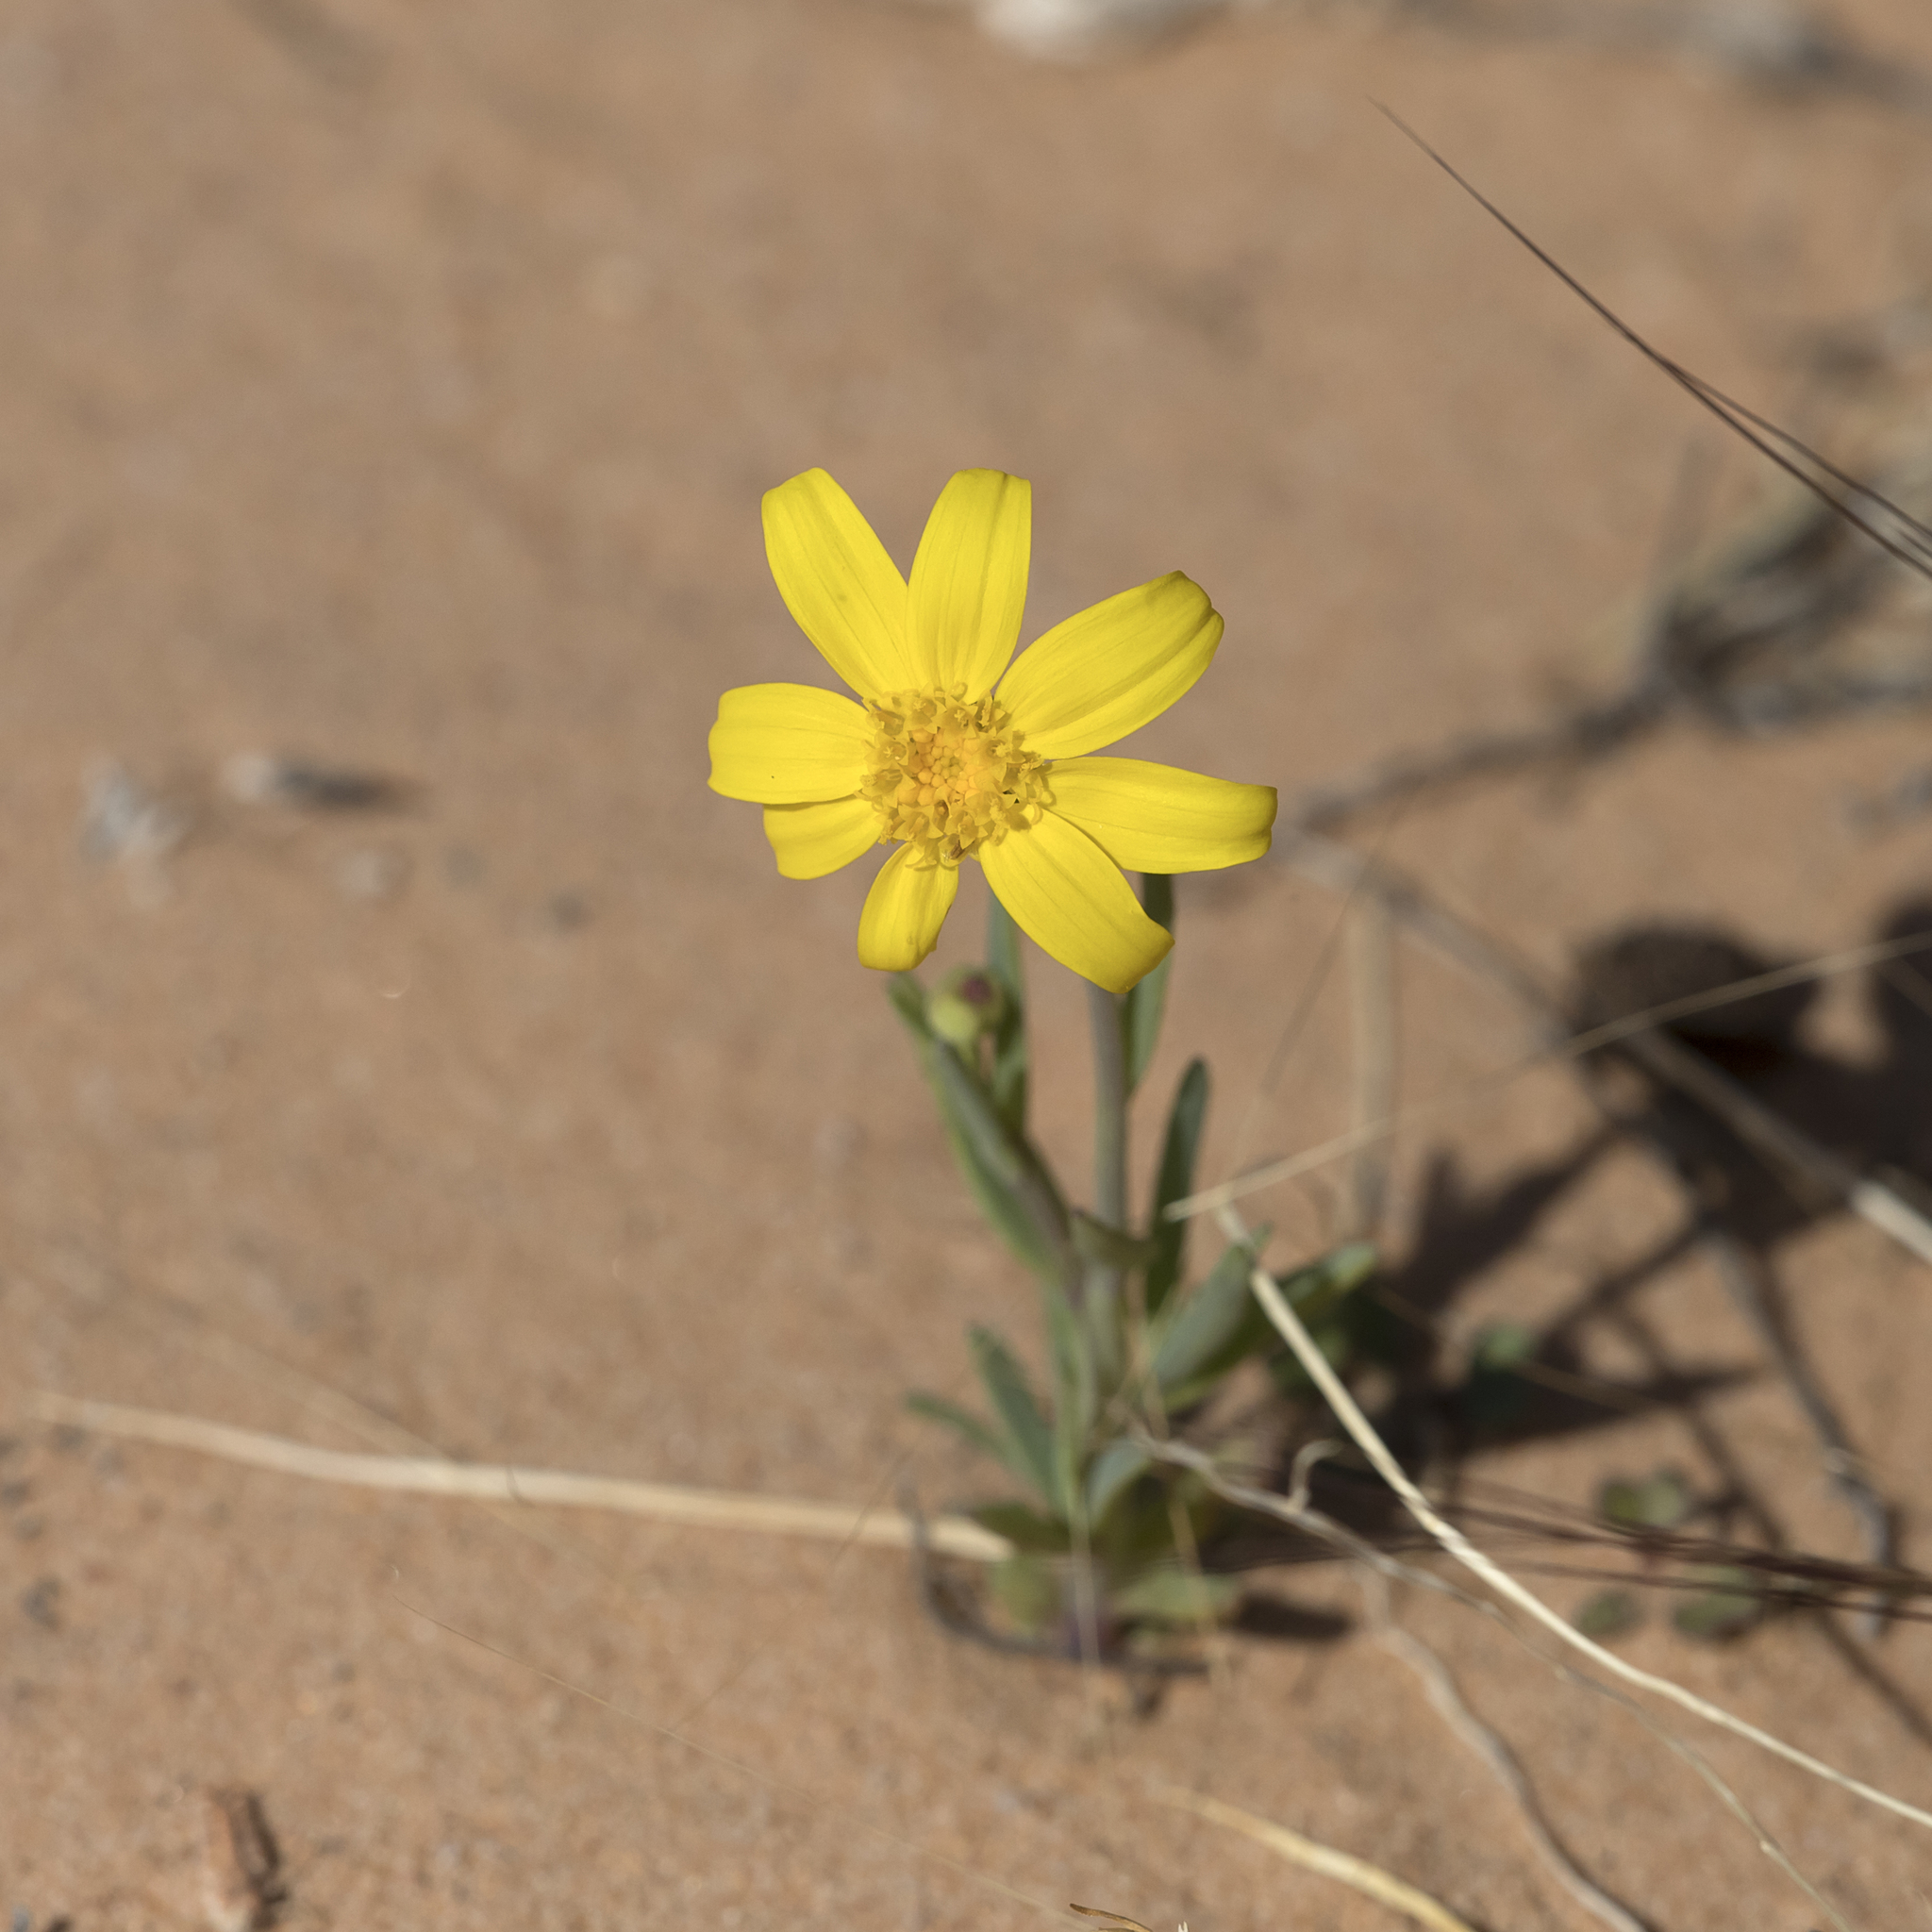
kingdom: Plantae
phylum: Tracheophyta
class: Magnoliopsida
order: Asterales
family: Asteraceae
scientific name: Asteraceae
